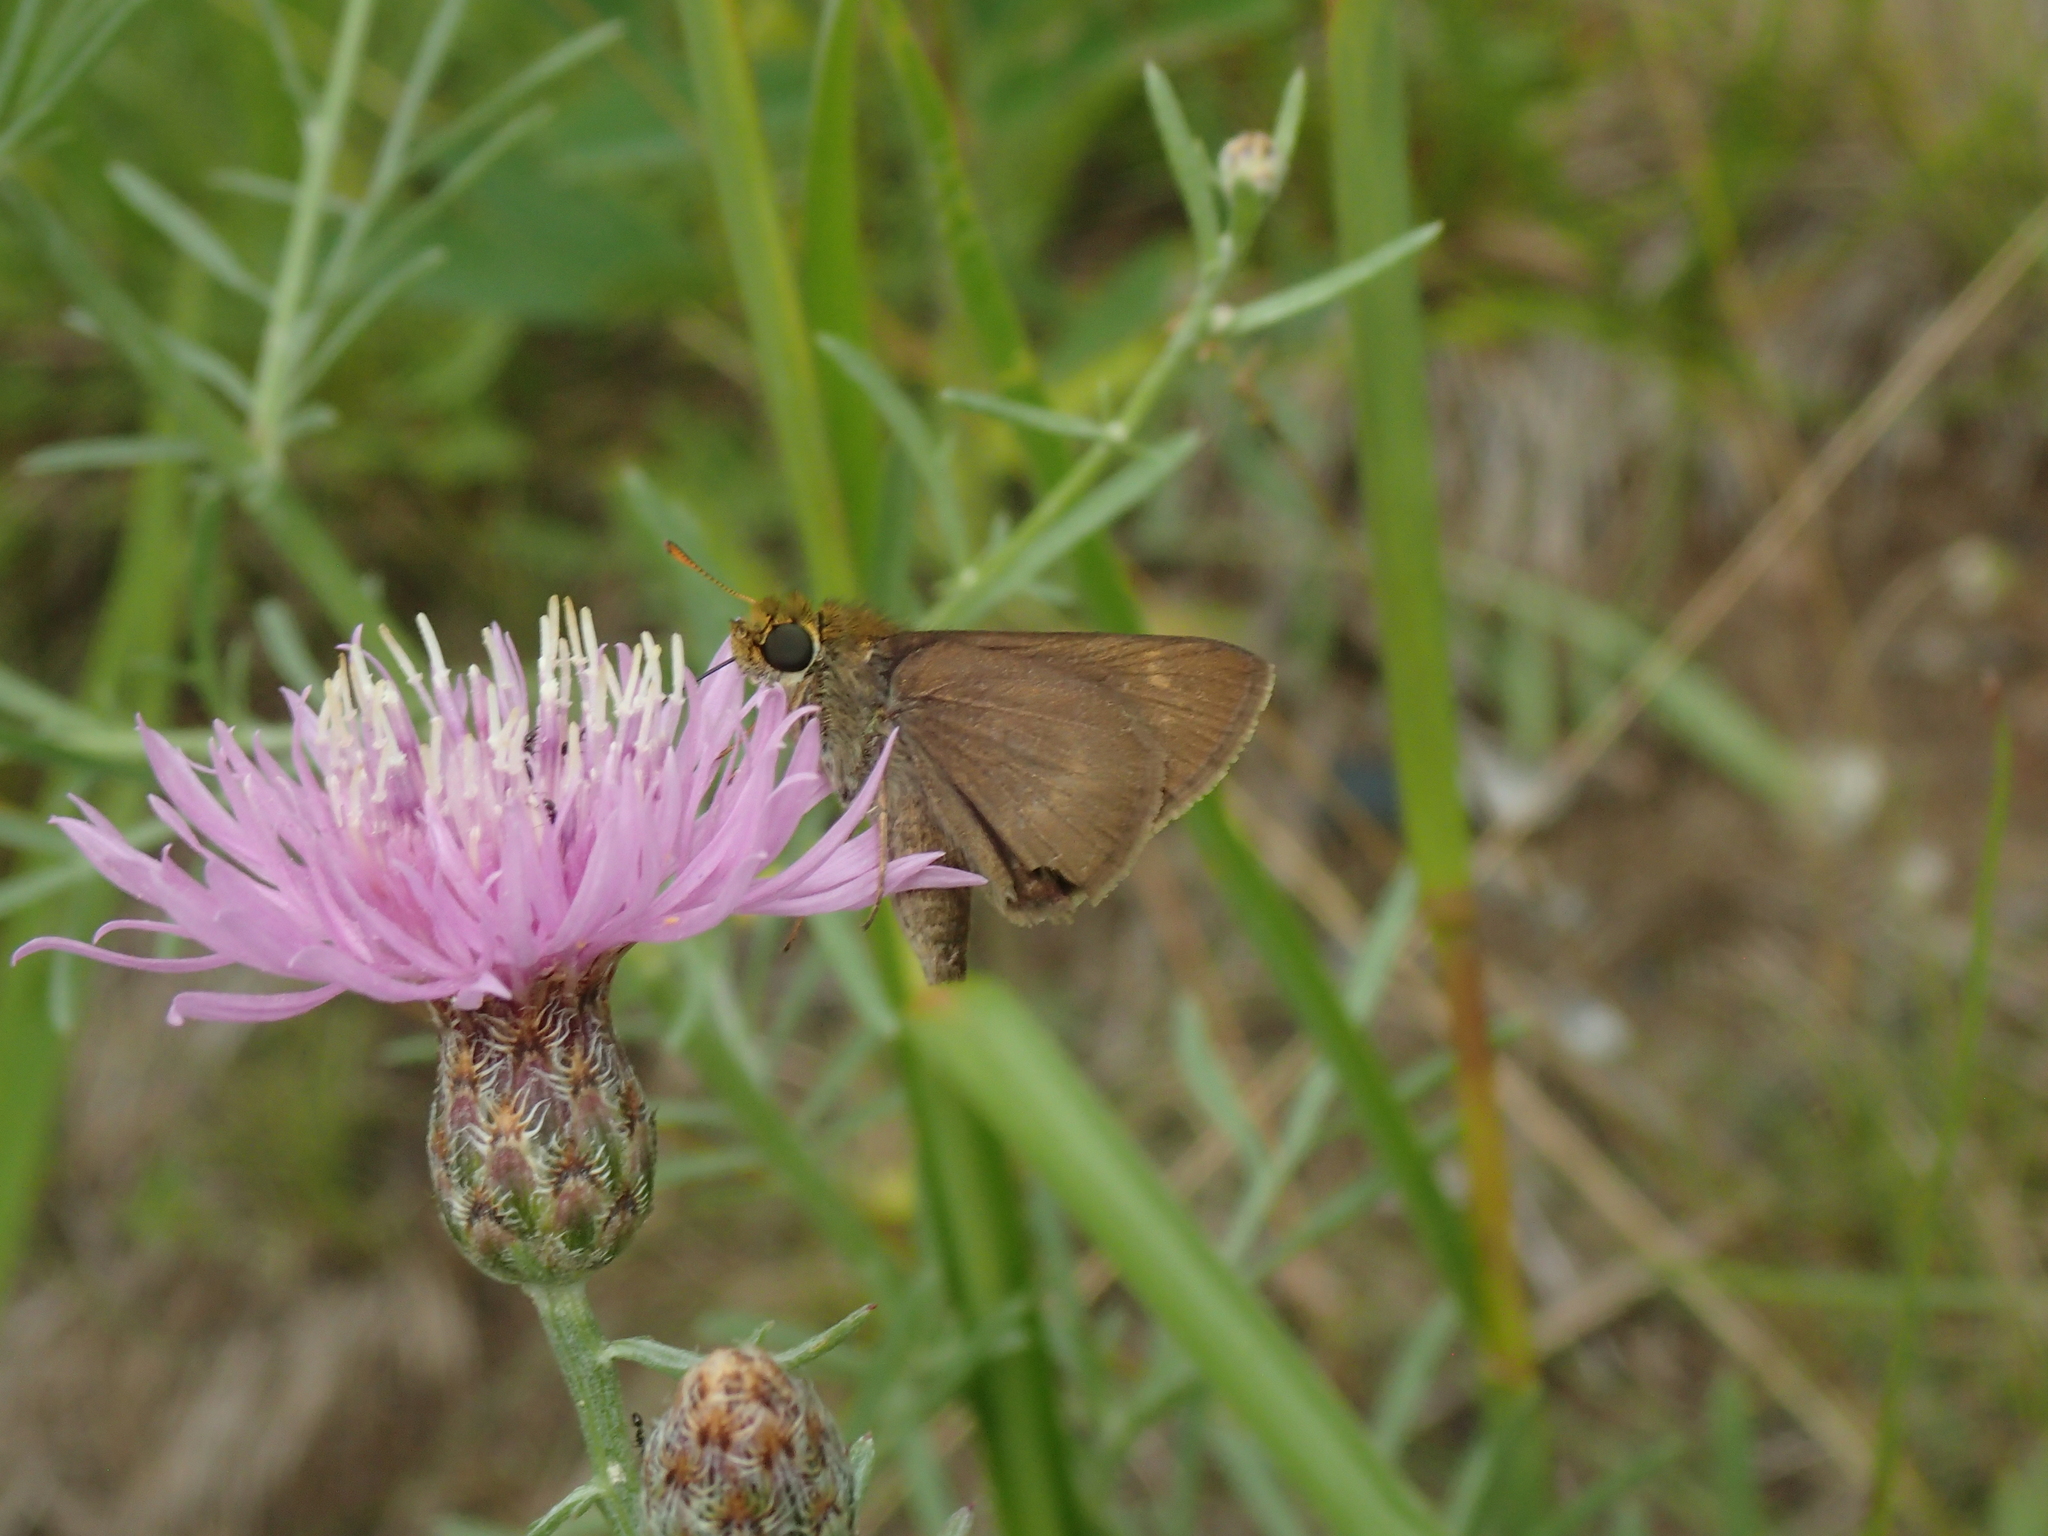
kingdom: Animalia
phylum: Arthropoda
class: Insecta
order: Lepidoptera
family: Hesperiidae
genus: Euphyes
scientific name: Euphyes vestris
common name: Dun skipper
